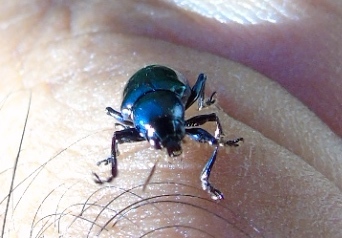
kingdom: Animalia
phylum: Arthropoda
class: Insecta
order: Coleoptera
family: Chrysomelidae
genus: Eumolpus
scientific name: Eumolpus robustus
